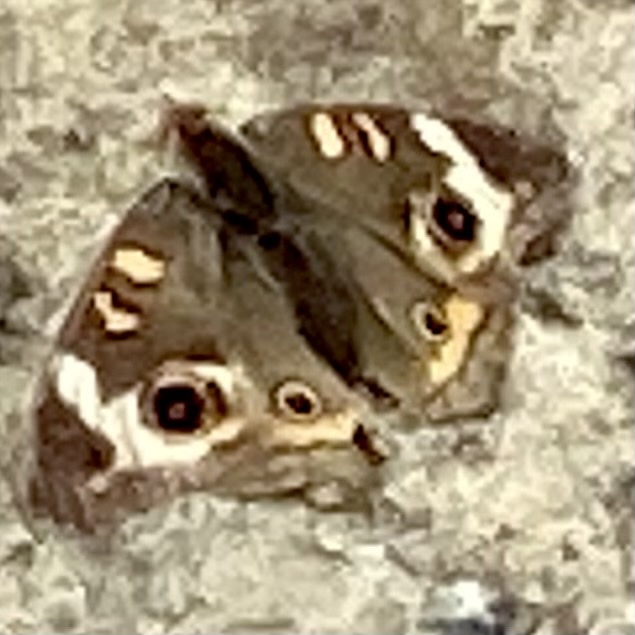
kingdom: Animalia
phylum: Arthropoda
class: Insecta
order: Lepidoptera
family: Nymphalidae
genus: Junonia
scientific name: Junonia coenia
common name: Common buckeye
